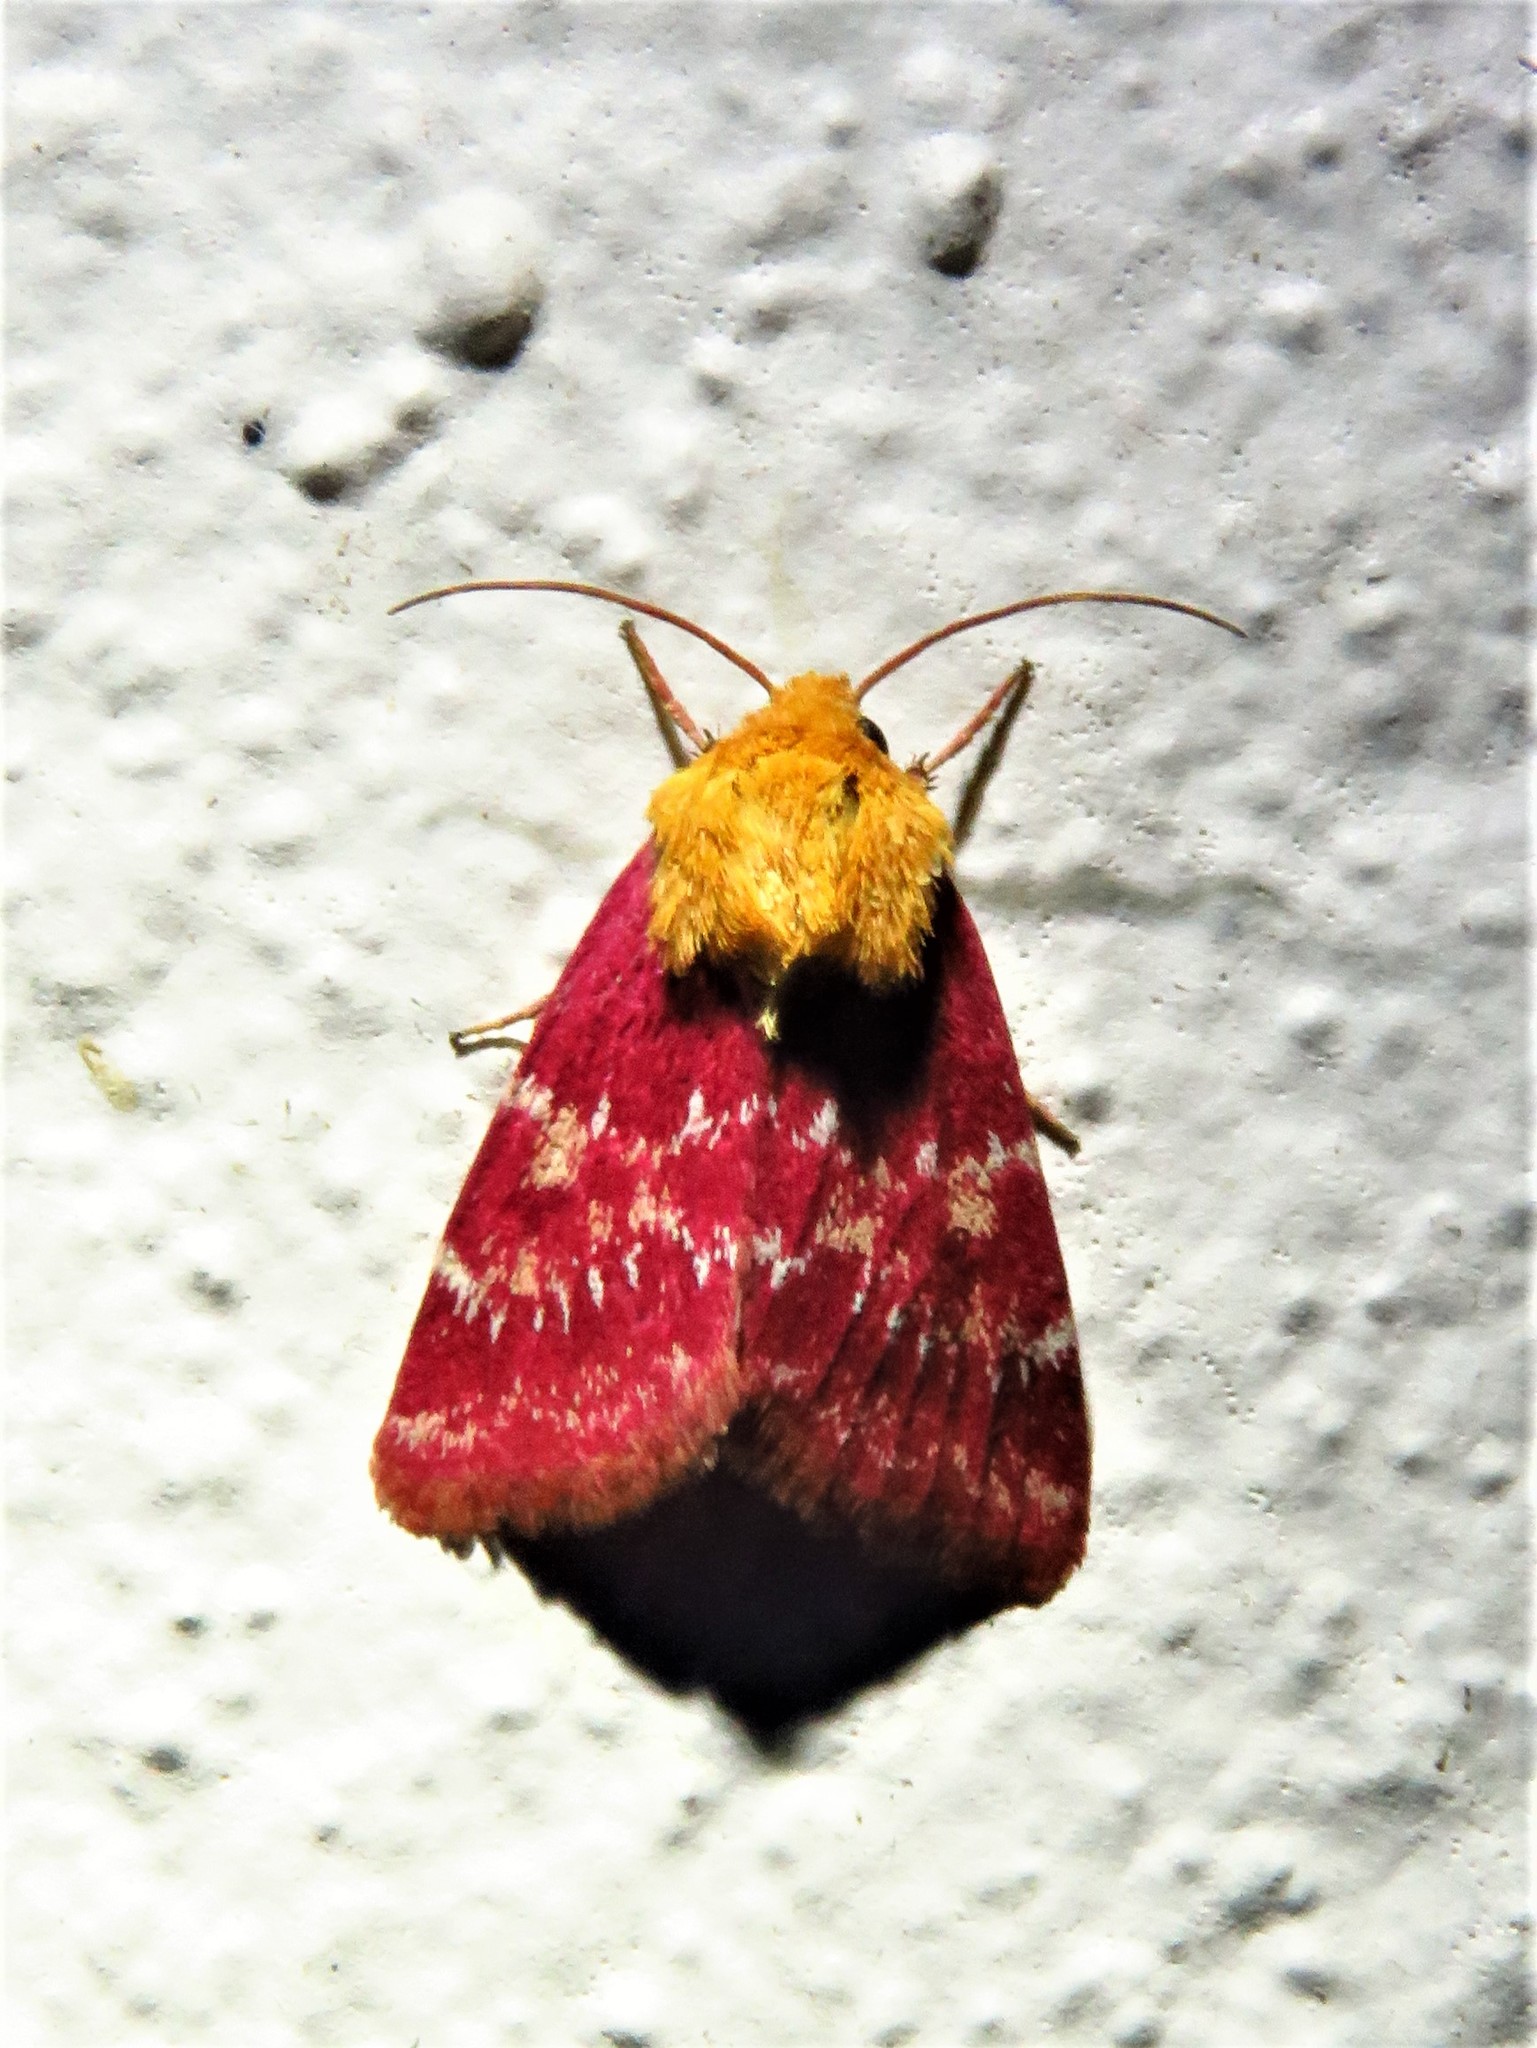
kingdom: Animalia
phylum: Arthropoda
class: Insecta
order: Lepidoptera
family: Noctuidae
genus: Schinia
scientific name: Schinia volupia
